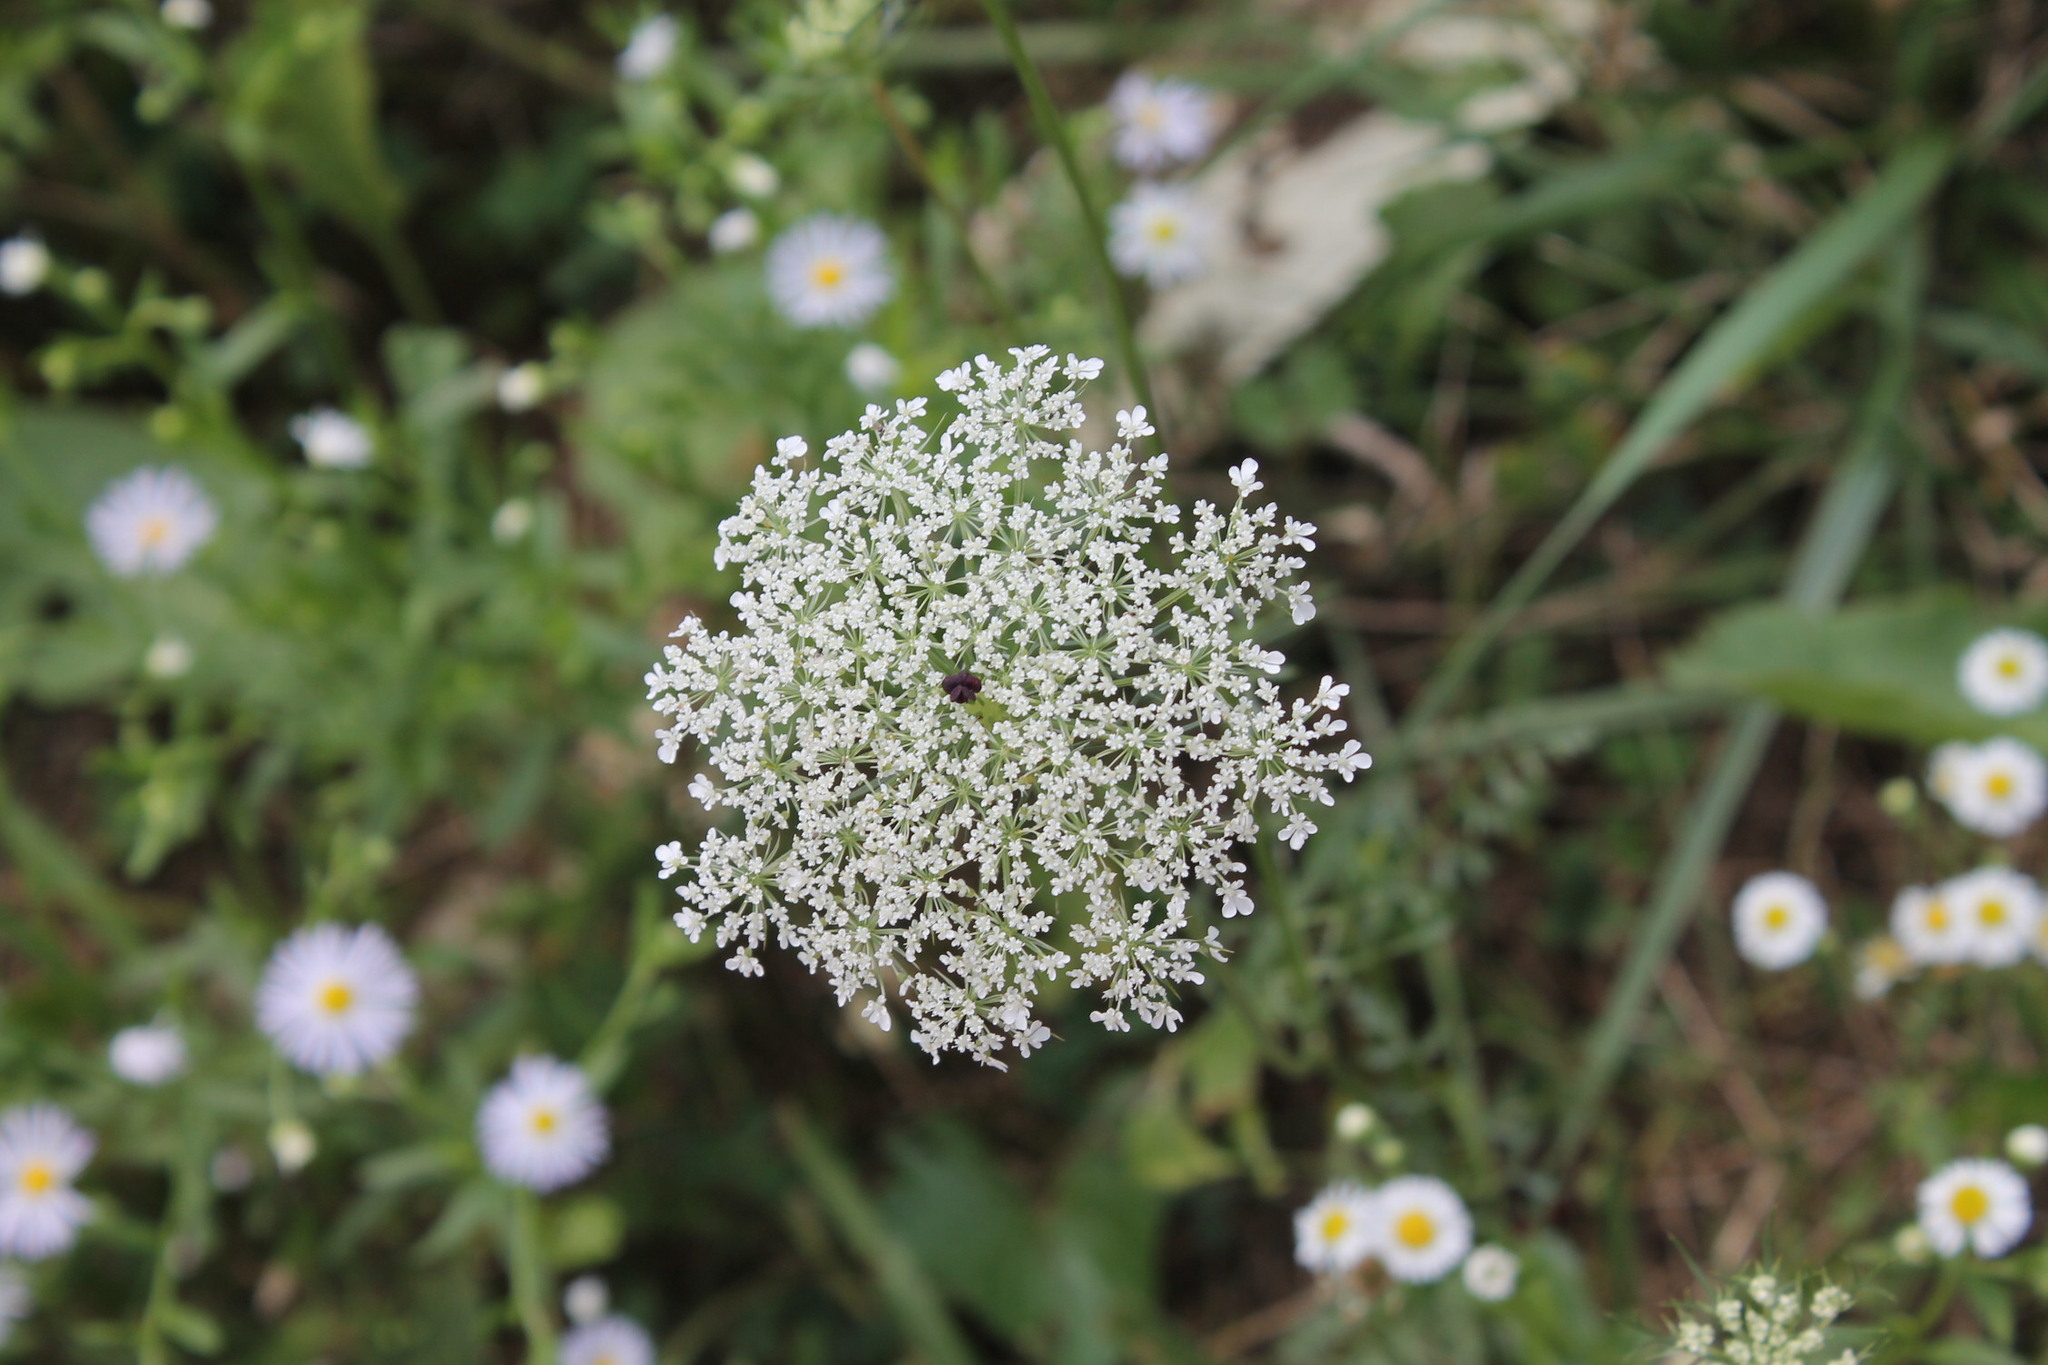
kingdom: Plantae
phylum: Tracheophyta
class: Magnoliopsida
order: Apiales
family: Apiaceae
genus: Daucus
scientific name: Daucus carota
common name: Wild carrot
